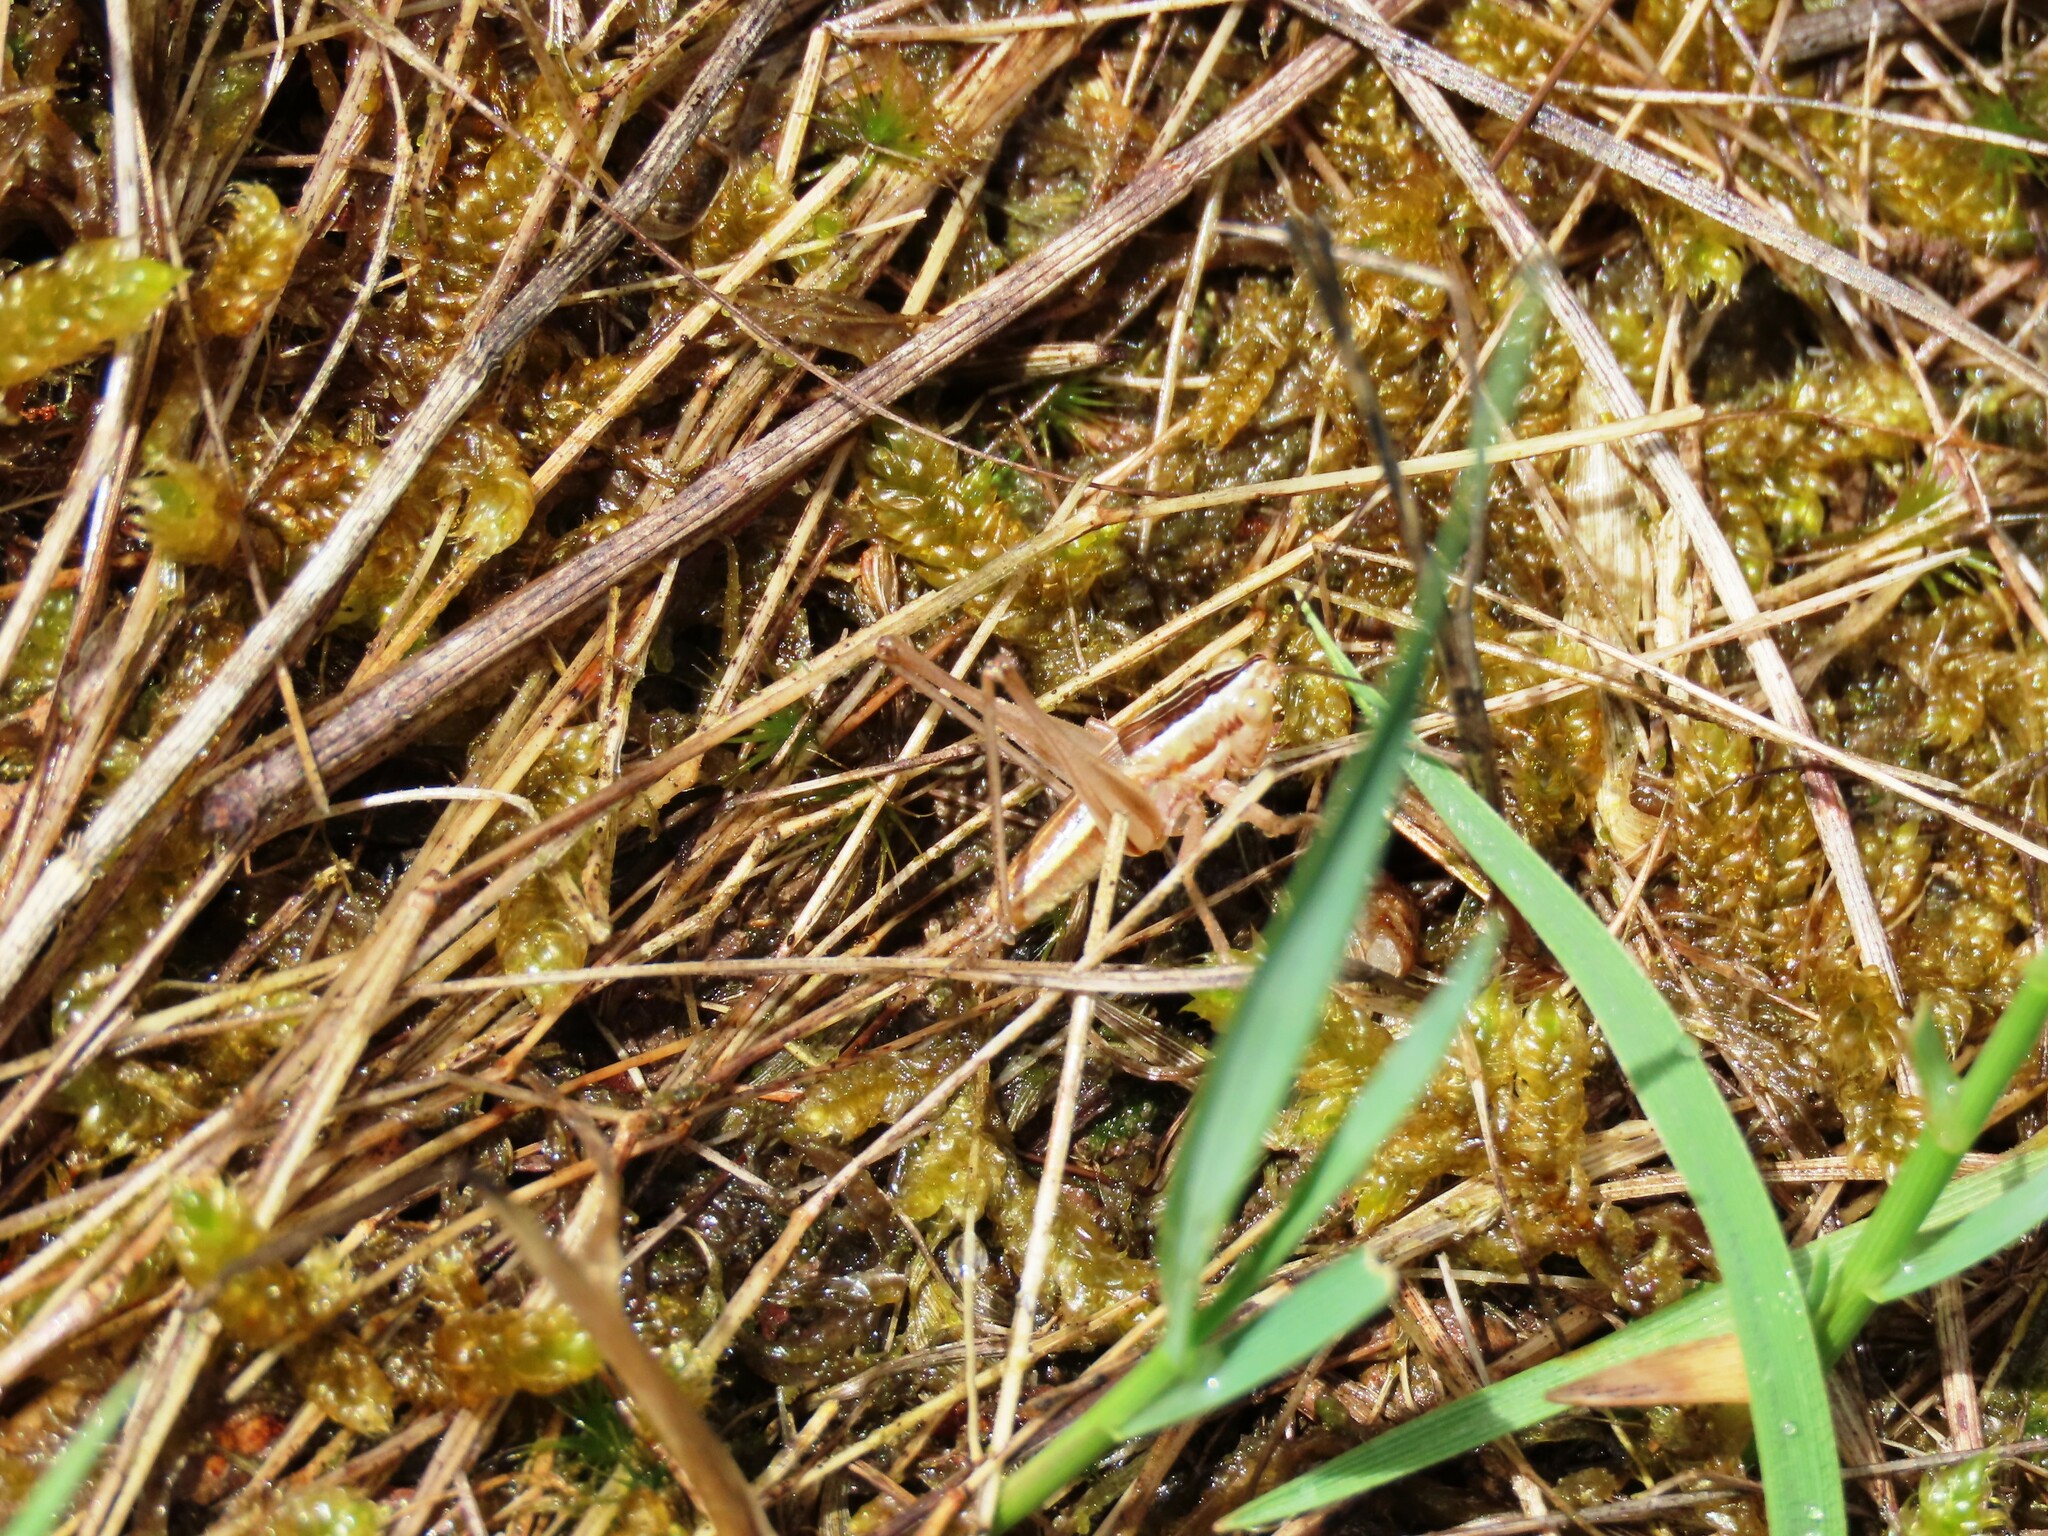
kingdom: Animalia
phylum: Arthropoda
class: Insecta
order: Orthoptera
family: Tettigoniidae
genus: Conocephalus
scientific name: Conocephalus bilineatus
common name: Small meadow katydid
